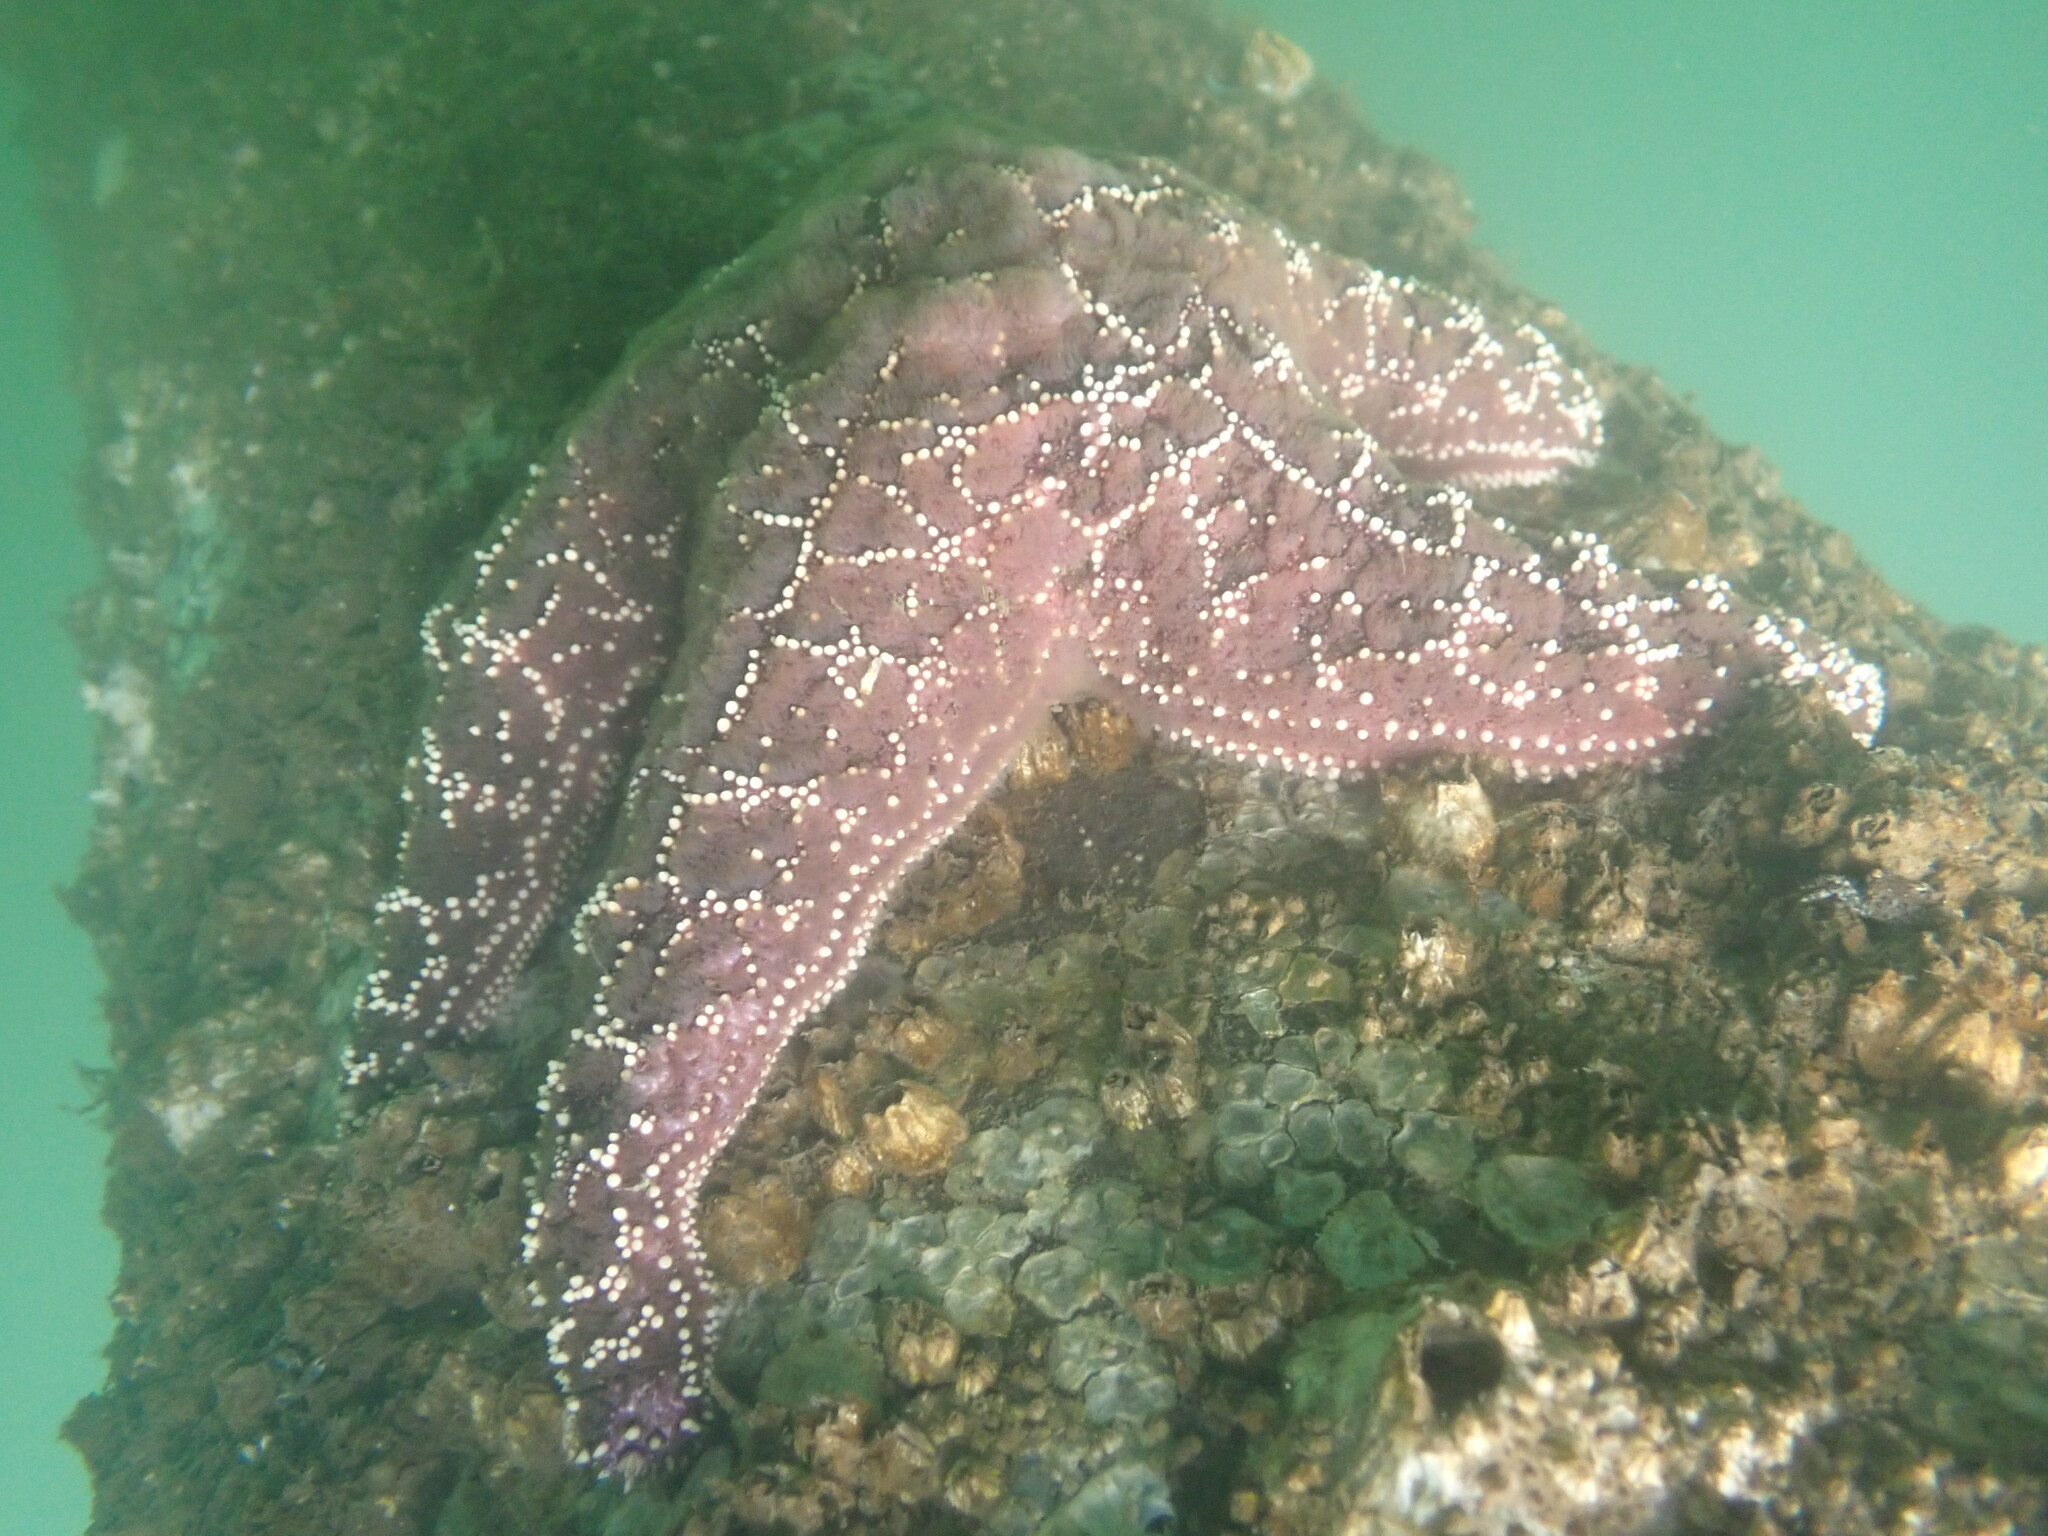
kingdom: Animalia
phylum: Echinodermata
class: Asteroidea
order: Forcipulatida
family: Asteriidae
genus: Pisaster
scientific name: Pisaster ochraceus
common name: Ochre stars
